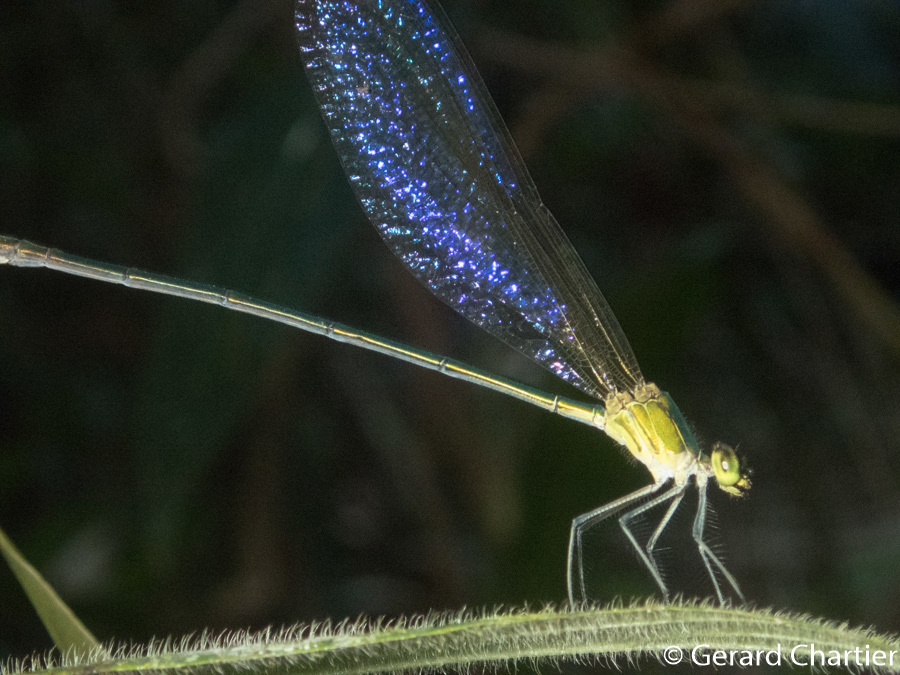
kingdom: Animalia
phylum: Arthropoda
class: Insecta
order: Odonata
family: Calopterygidae
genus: Vestalis
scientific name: Vestalis gracilis
